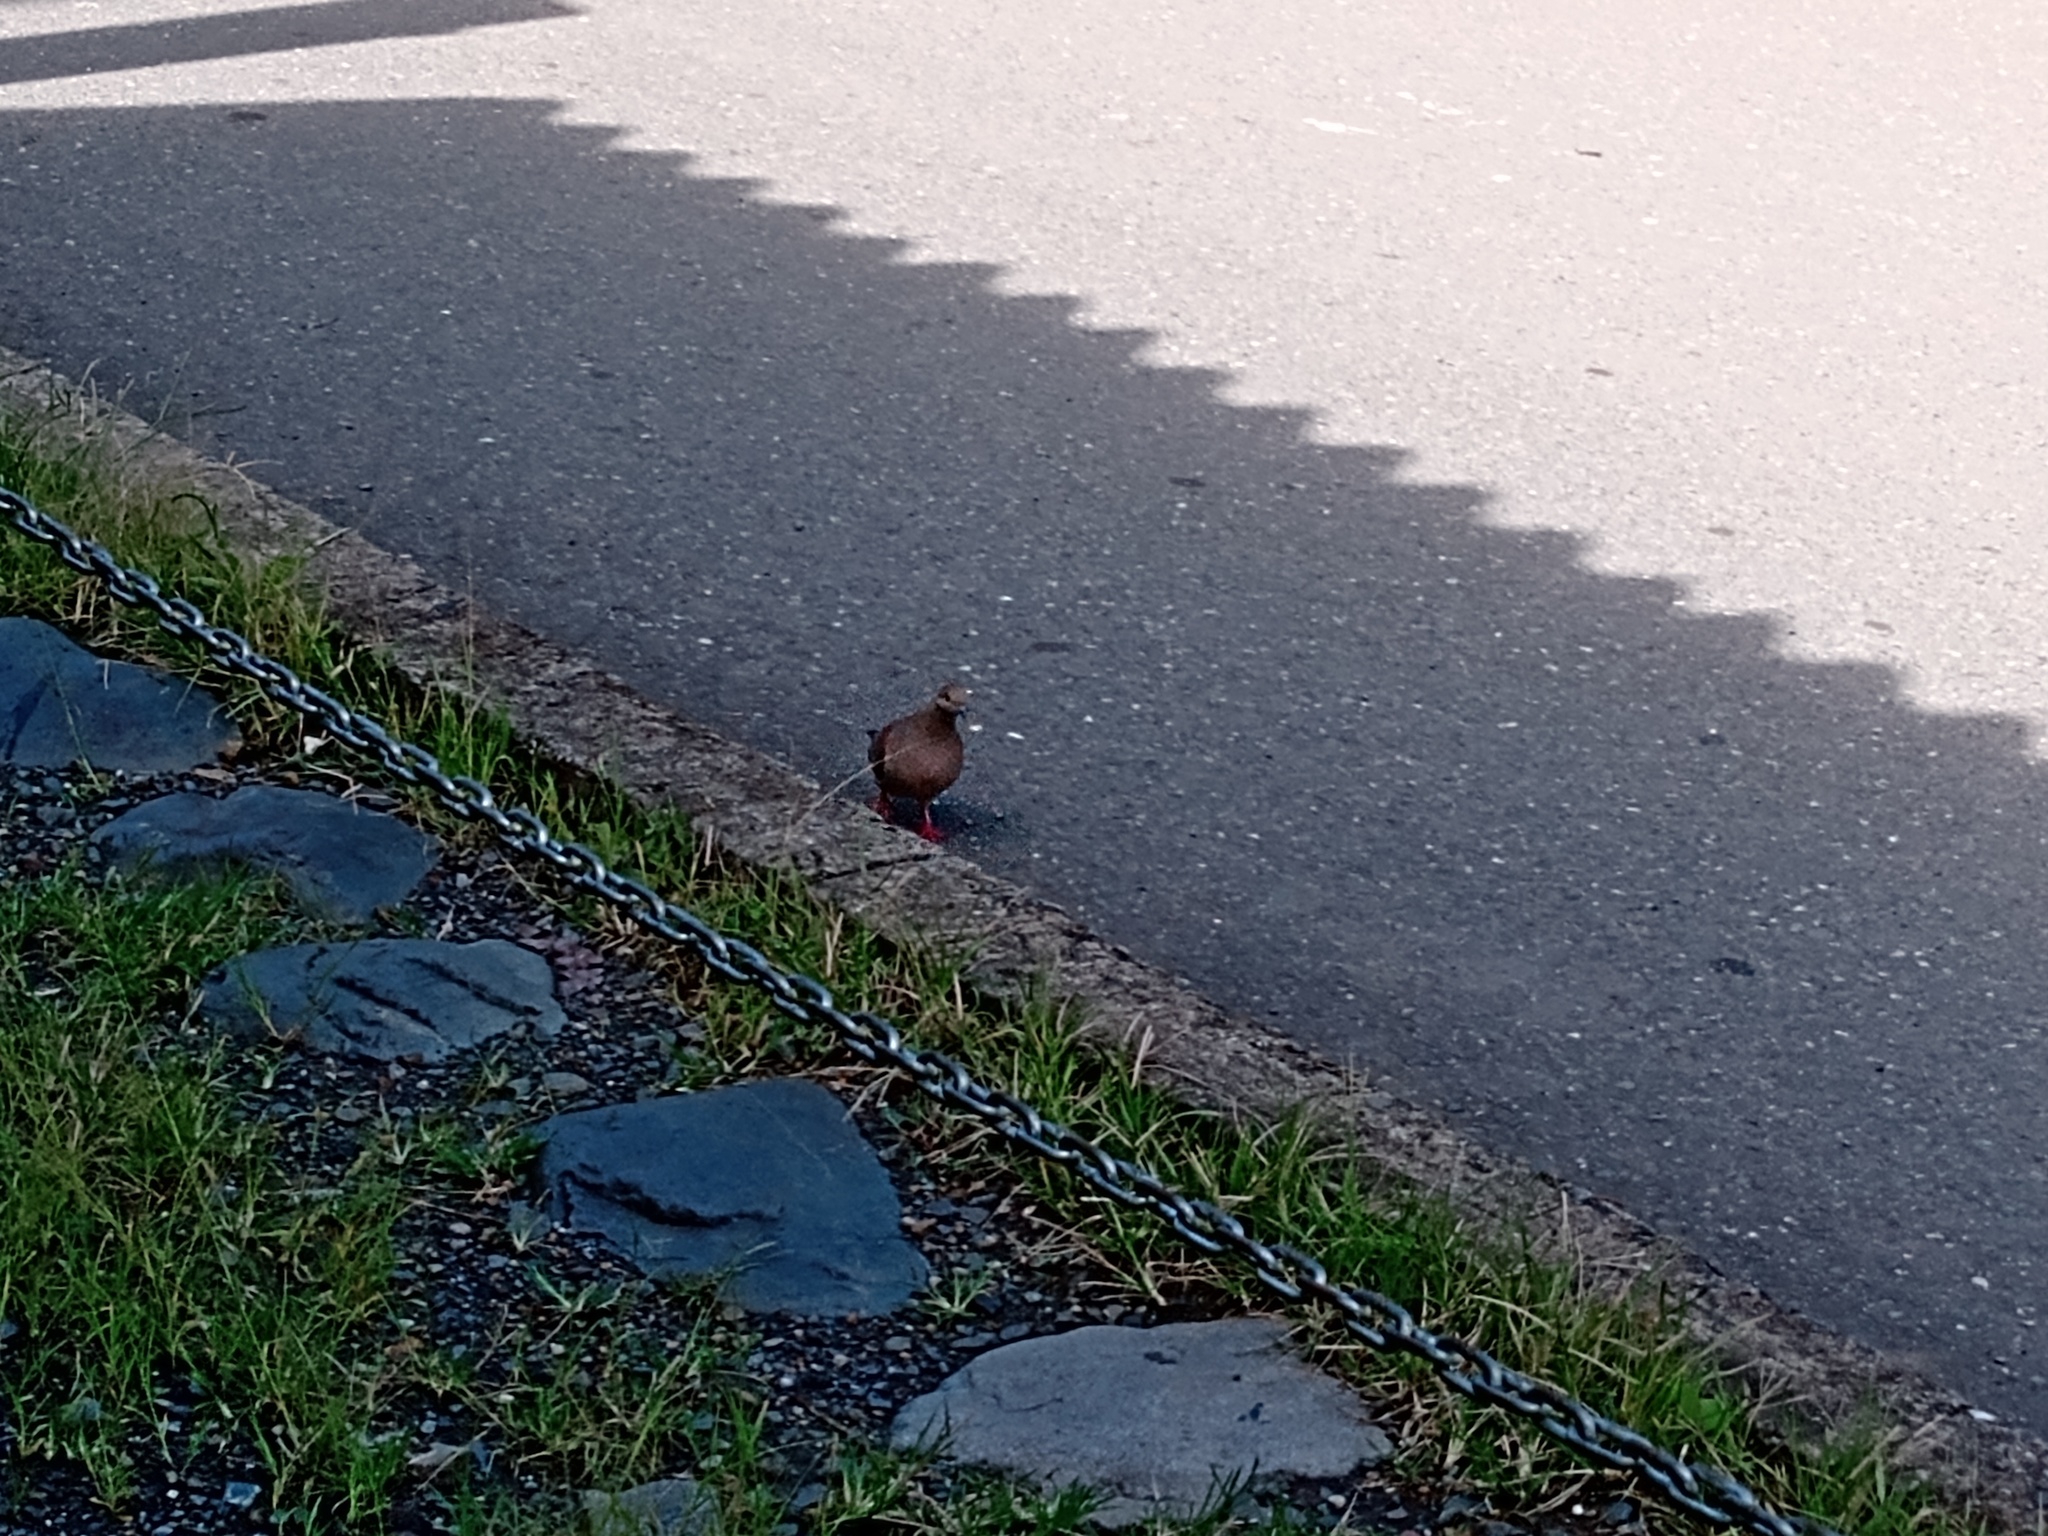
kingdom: Animalia
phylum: Chordata
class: Aves
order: Columbiformes
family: Columbidae
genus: Zenaida
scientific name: Zenaida auriculata
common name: Eared dove
